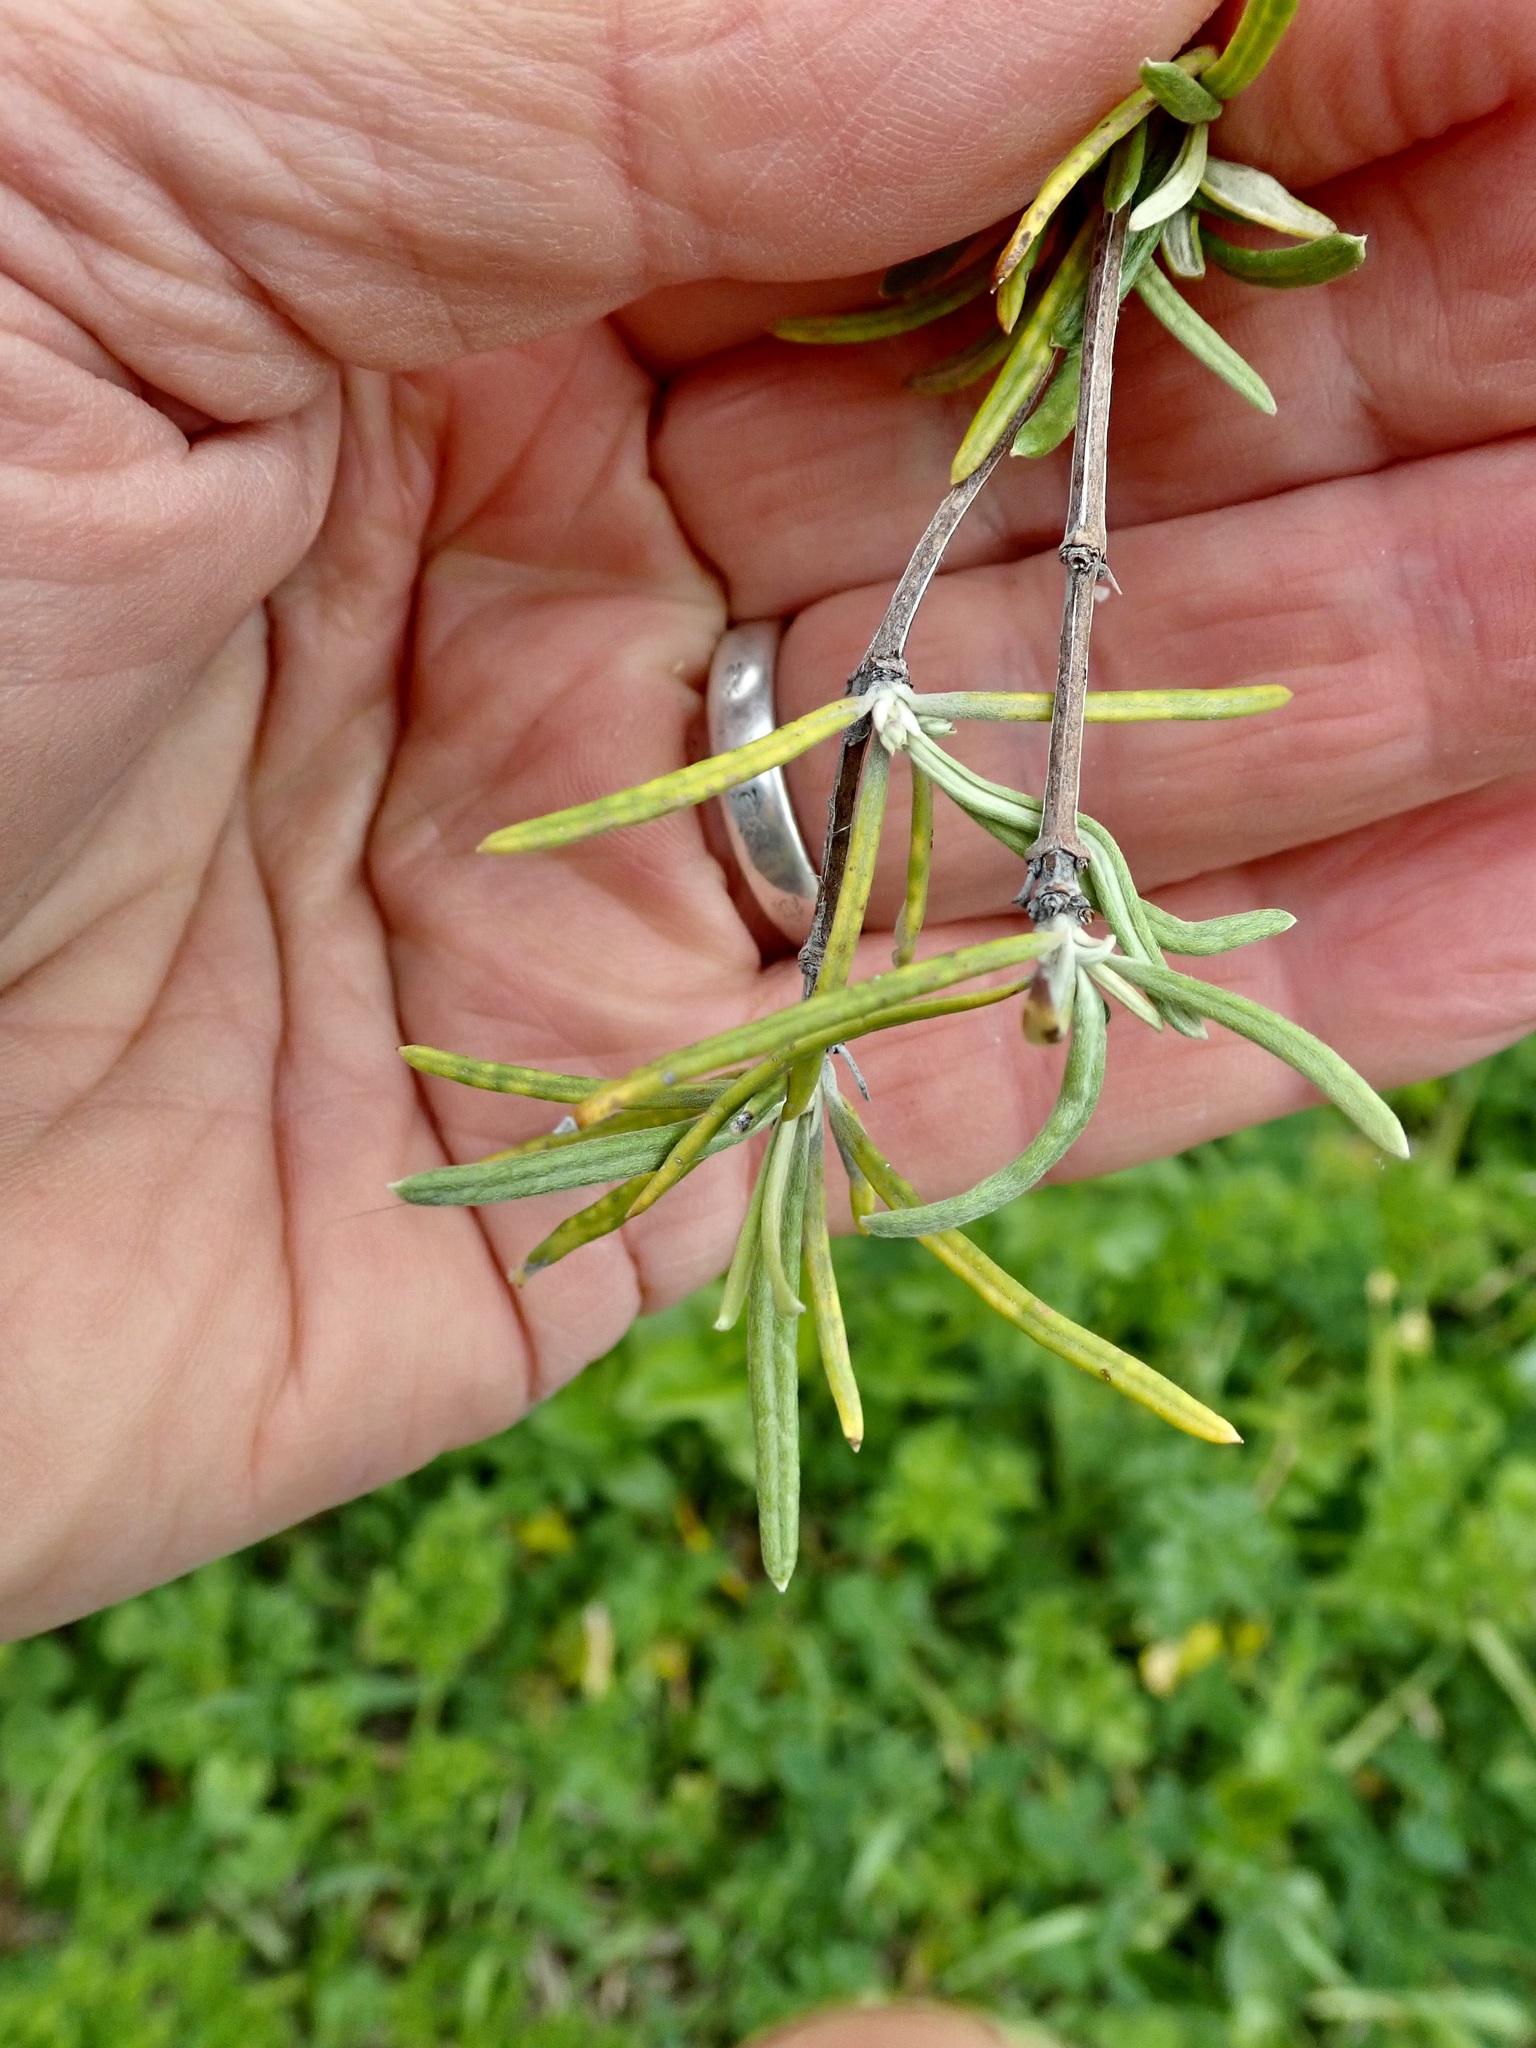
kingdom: Plantae
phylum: Tracheophyta
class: Magnoliopsida
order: Asterales
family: Asteraceae
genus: Olearia
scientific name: Olearia lineata
